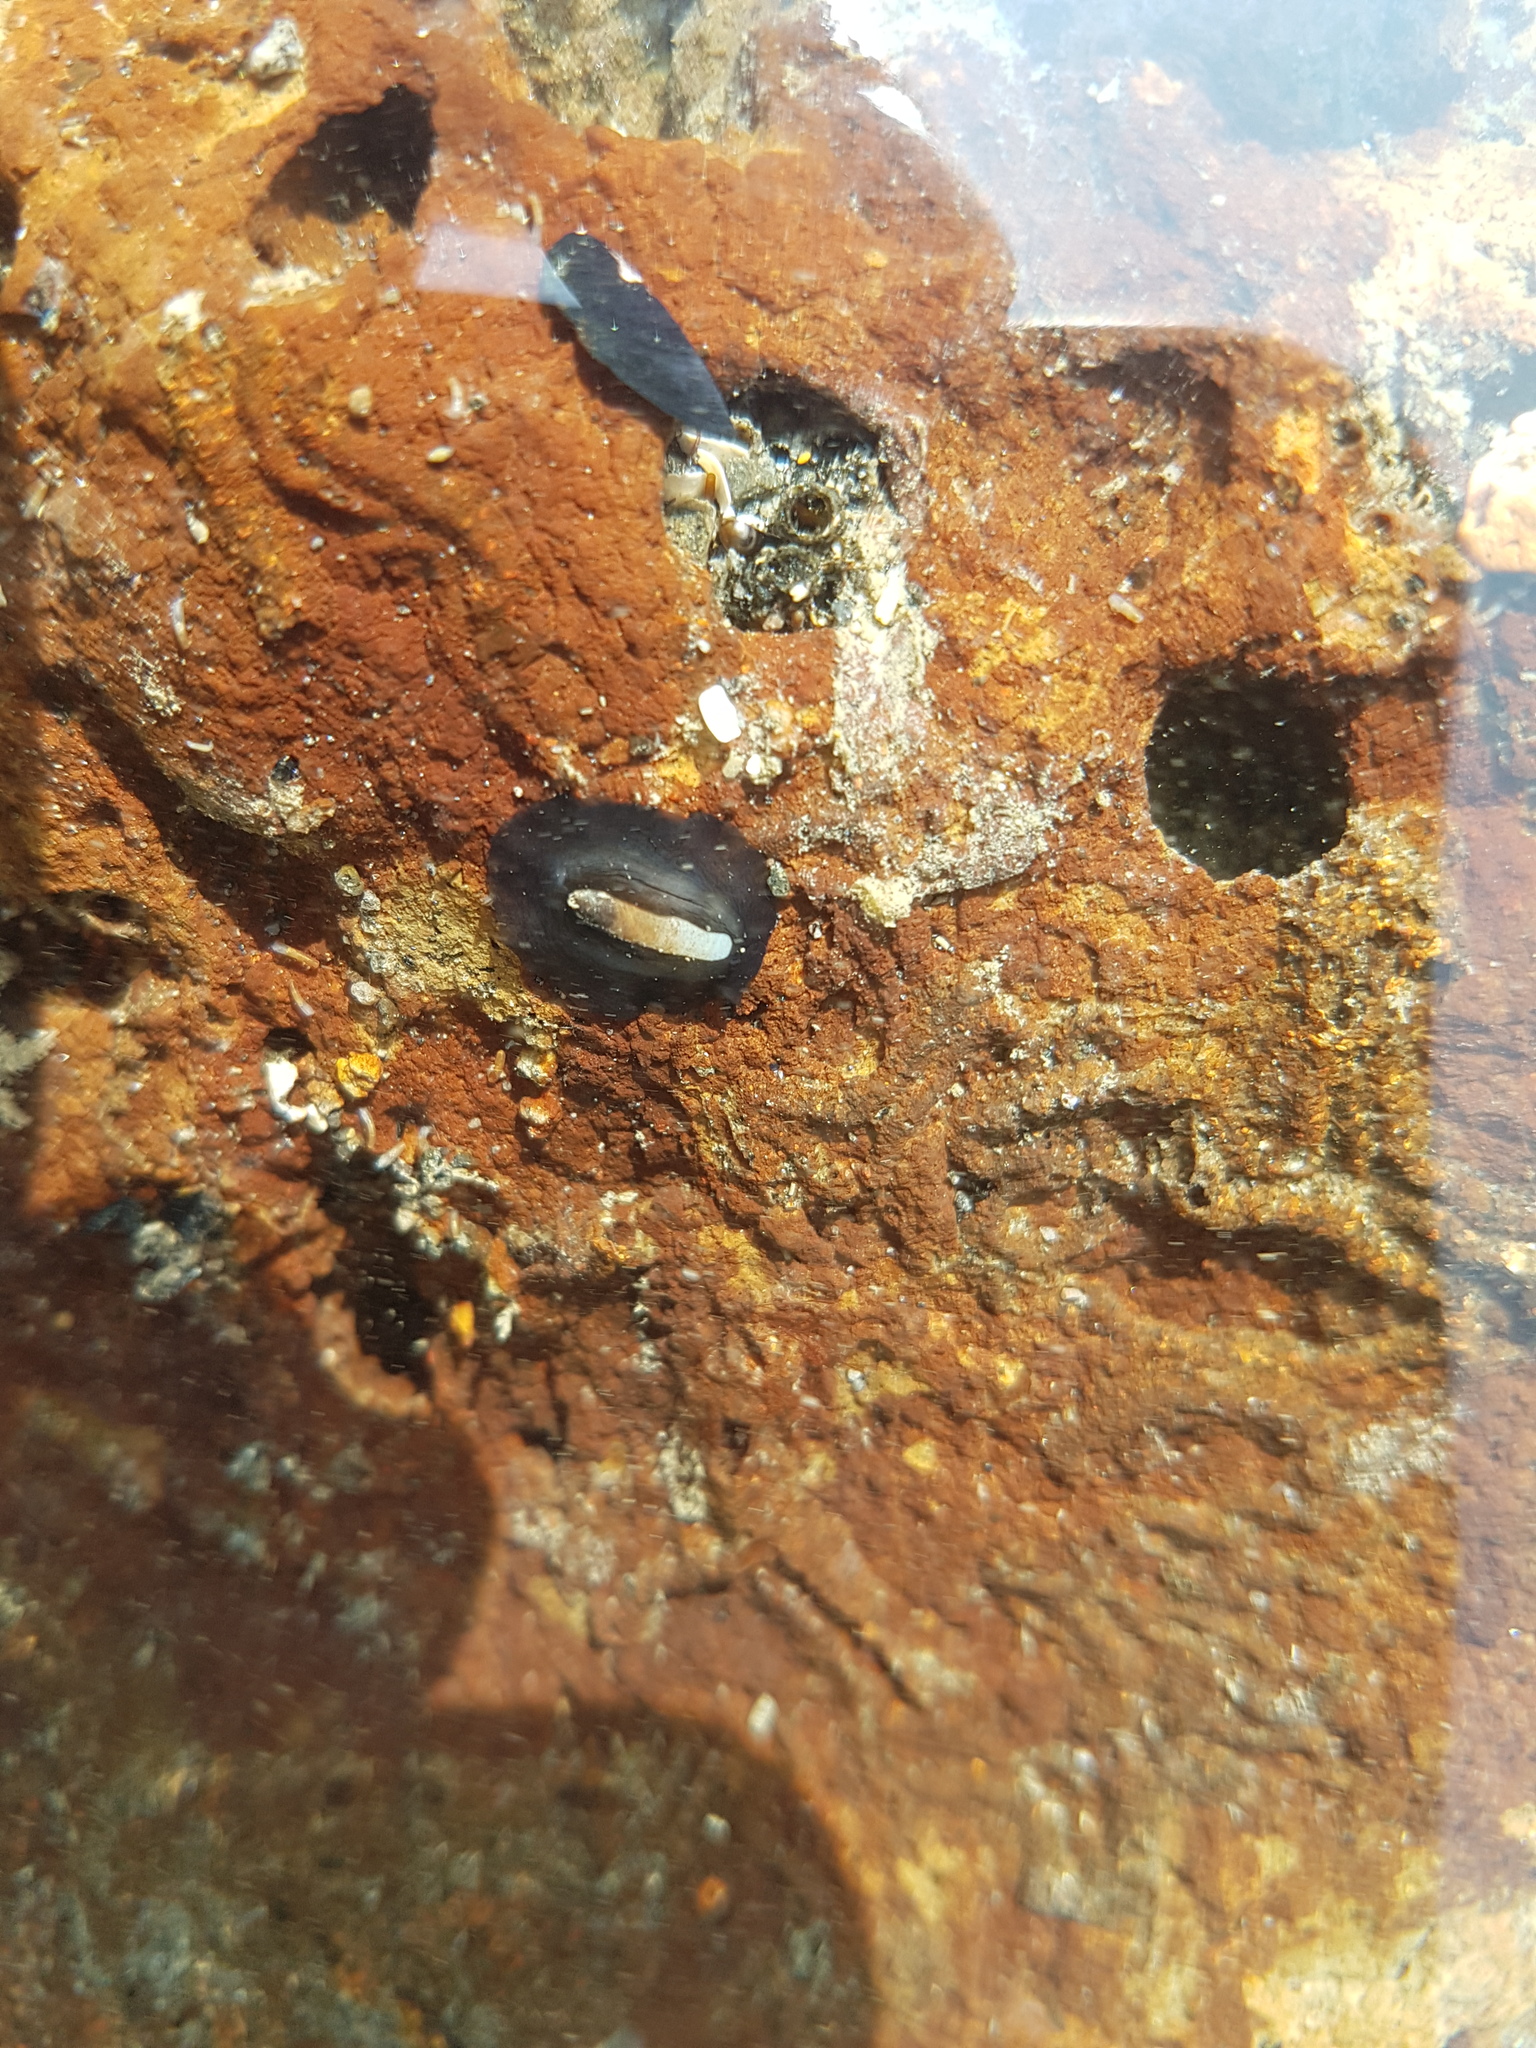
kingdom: Animalia
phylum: Mollusca
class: Gastropoda
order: Lepetellida
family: Fissurellidae
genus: Scutus
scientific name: Scutus breviculus
